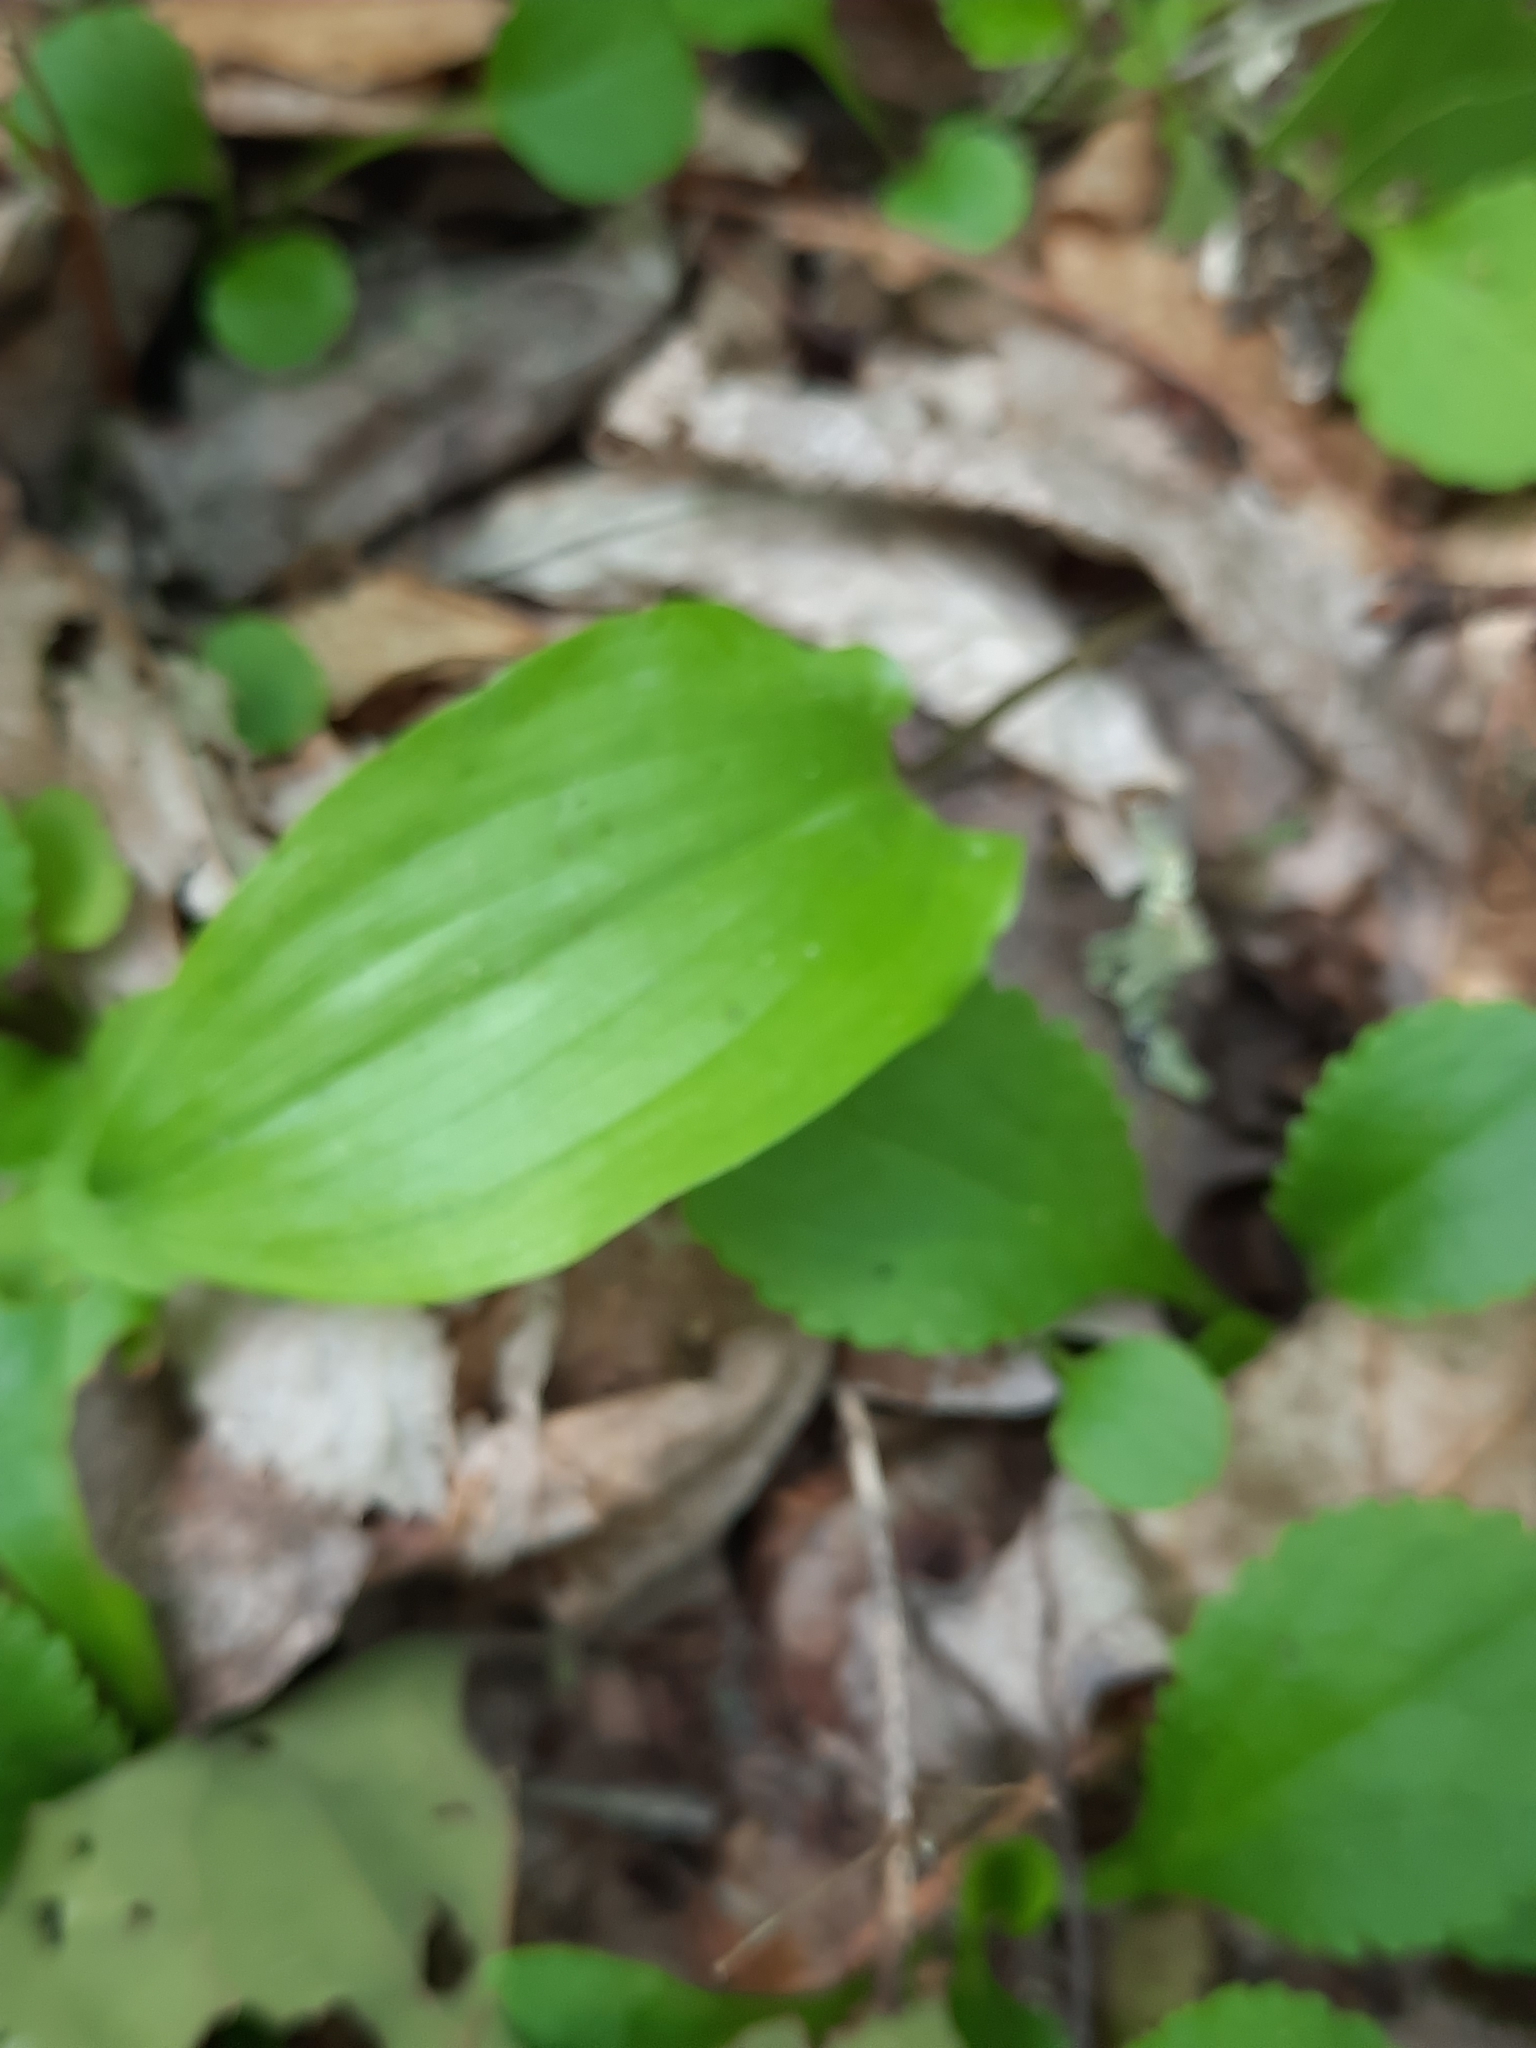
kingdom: Plantae
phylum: Tracheophyta
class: Liliopsida
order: Asparagales
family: Asparagaceae
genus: Maianthemum
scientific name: Maianthemum canadense
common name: False lily-of-the-valley
